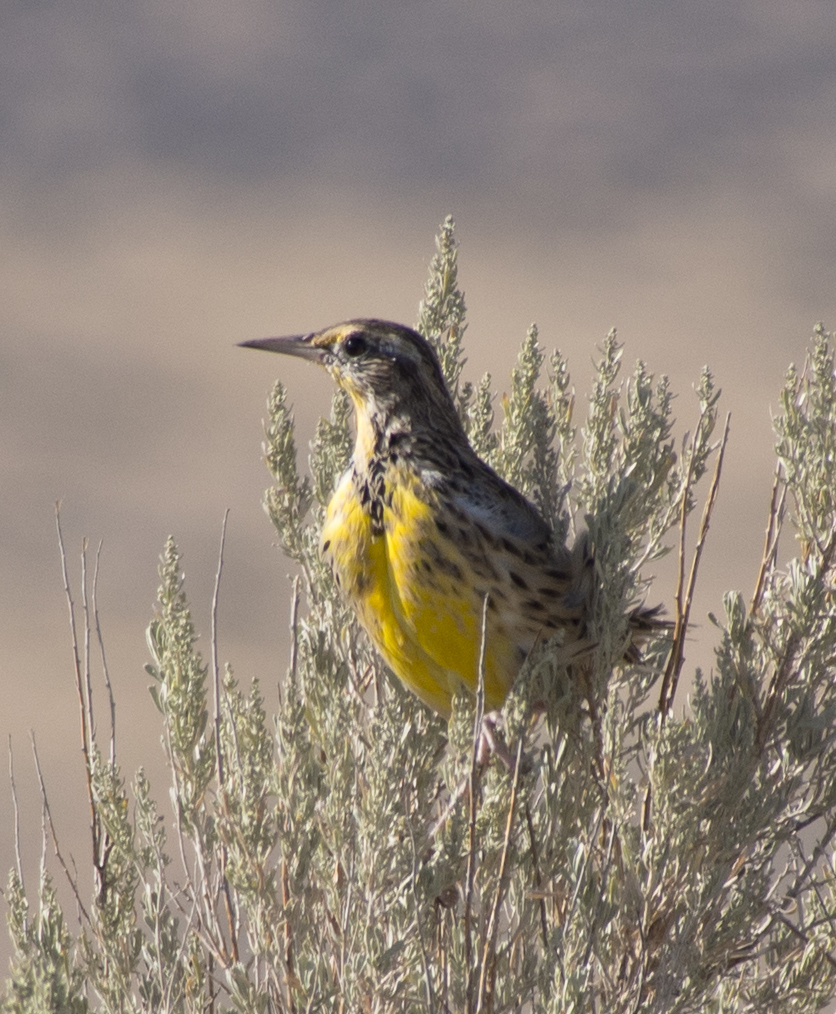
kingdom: Animalia
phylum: Chordata
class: Aves
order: Passeriformes
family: Icteridae
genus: Sturnella
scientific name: Sturnella neglecta
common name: Western meadowlark
